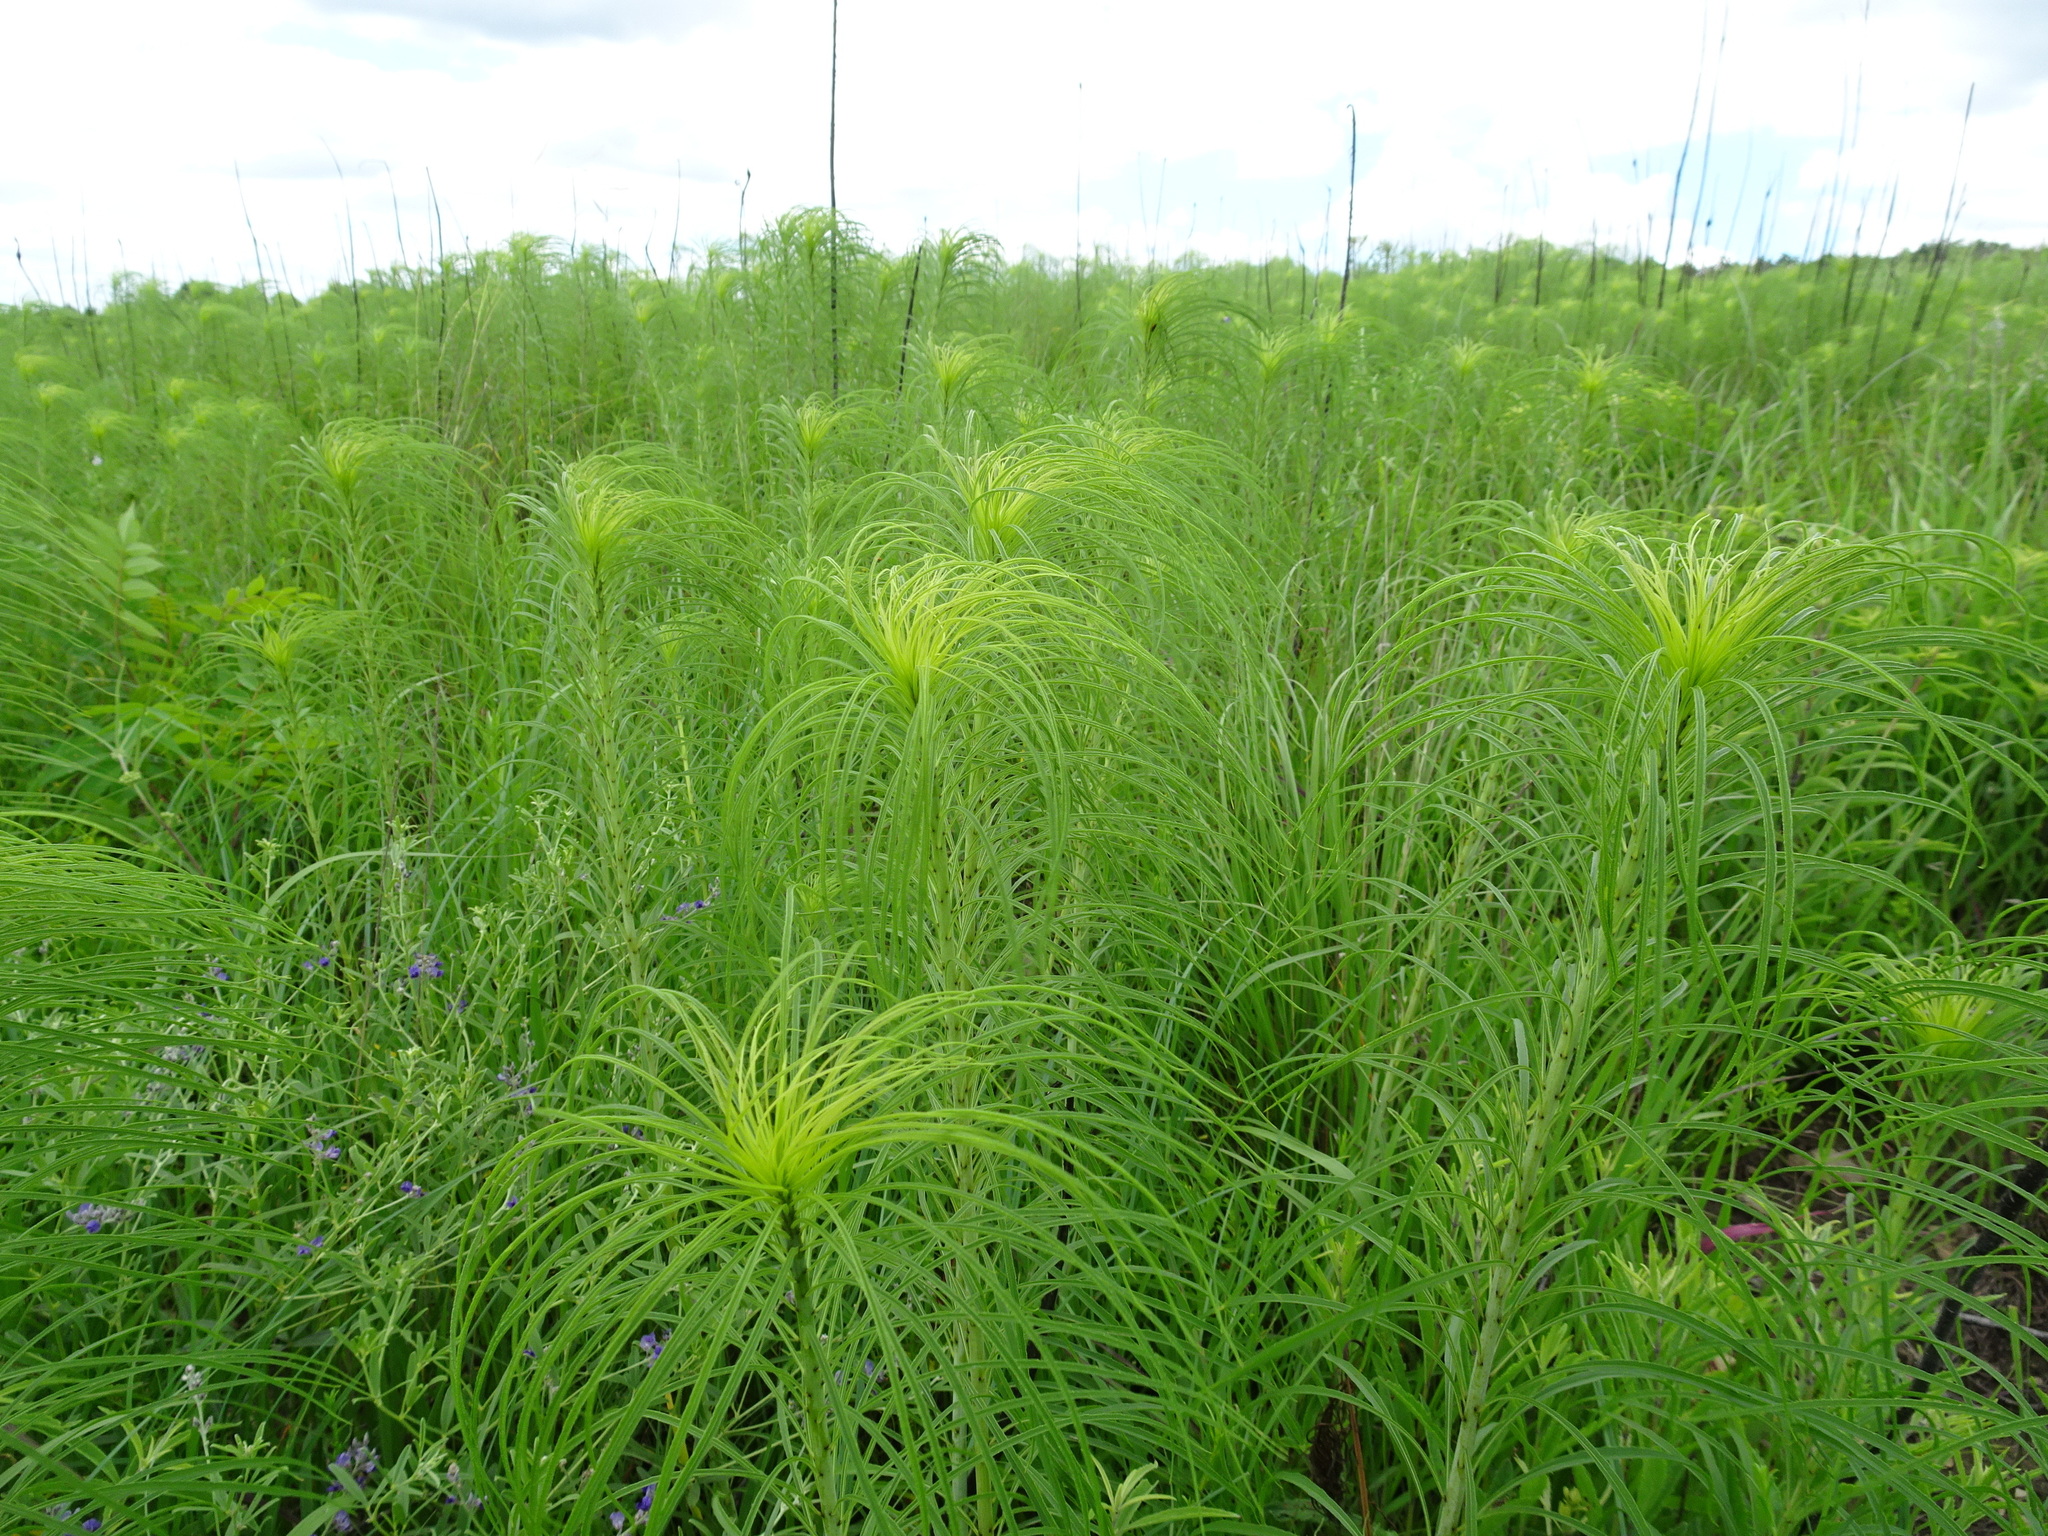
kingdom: Plantae
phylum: Tracheophyta
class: Magnoliopsida
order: Asterales
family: Asteraceae
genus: Helianthus
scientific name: Helianthus salicifolius
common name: Willowleaf sunflower
